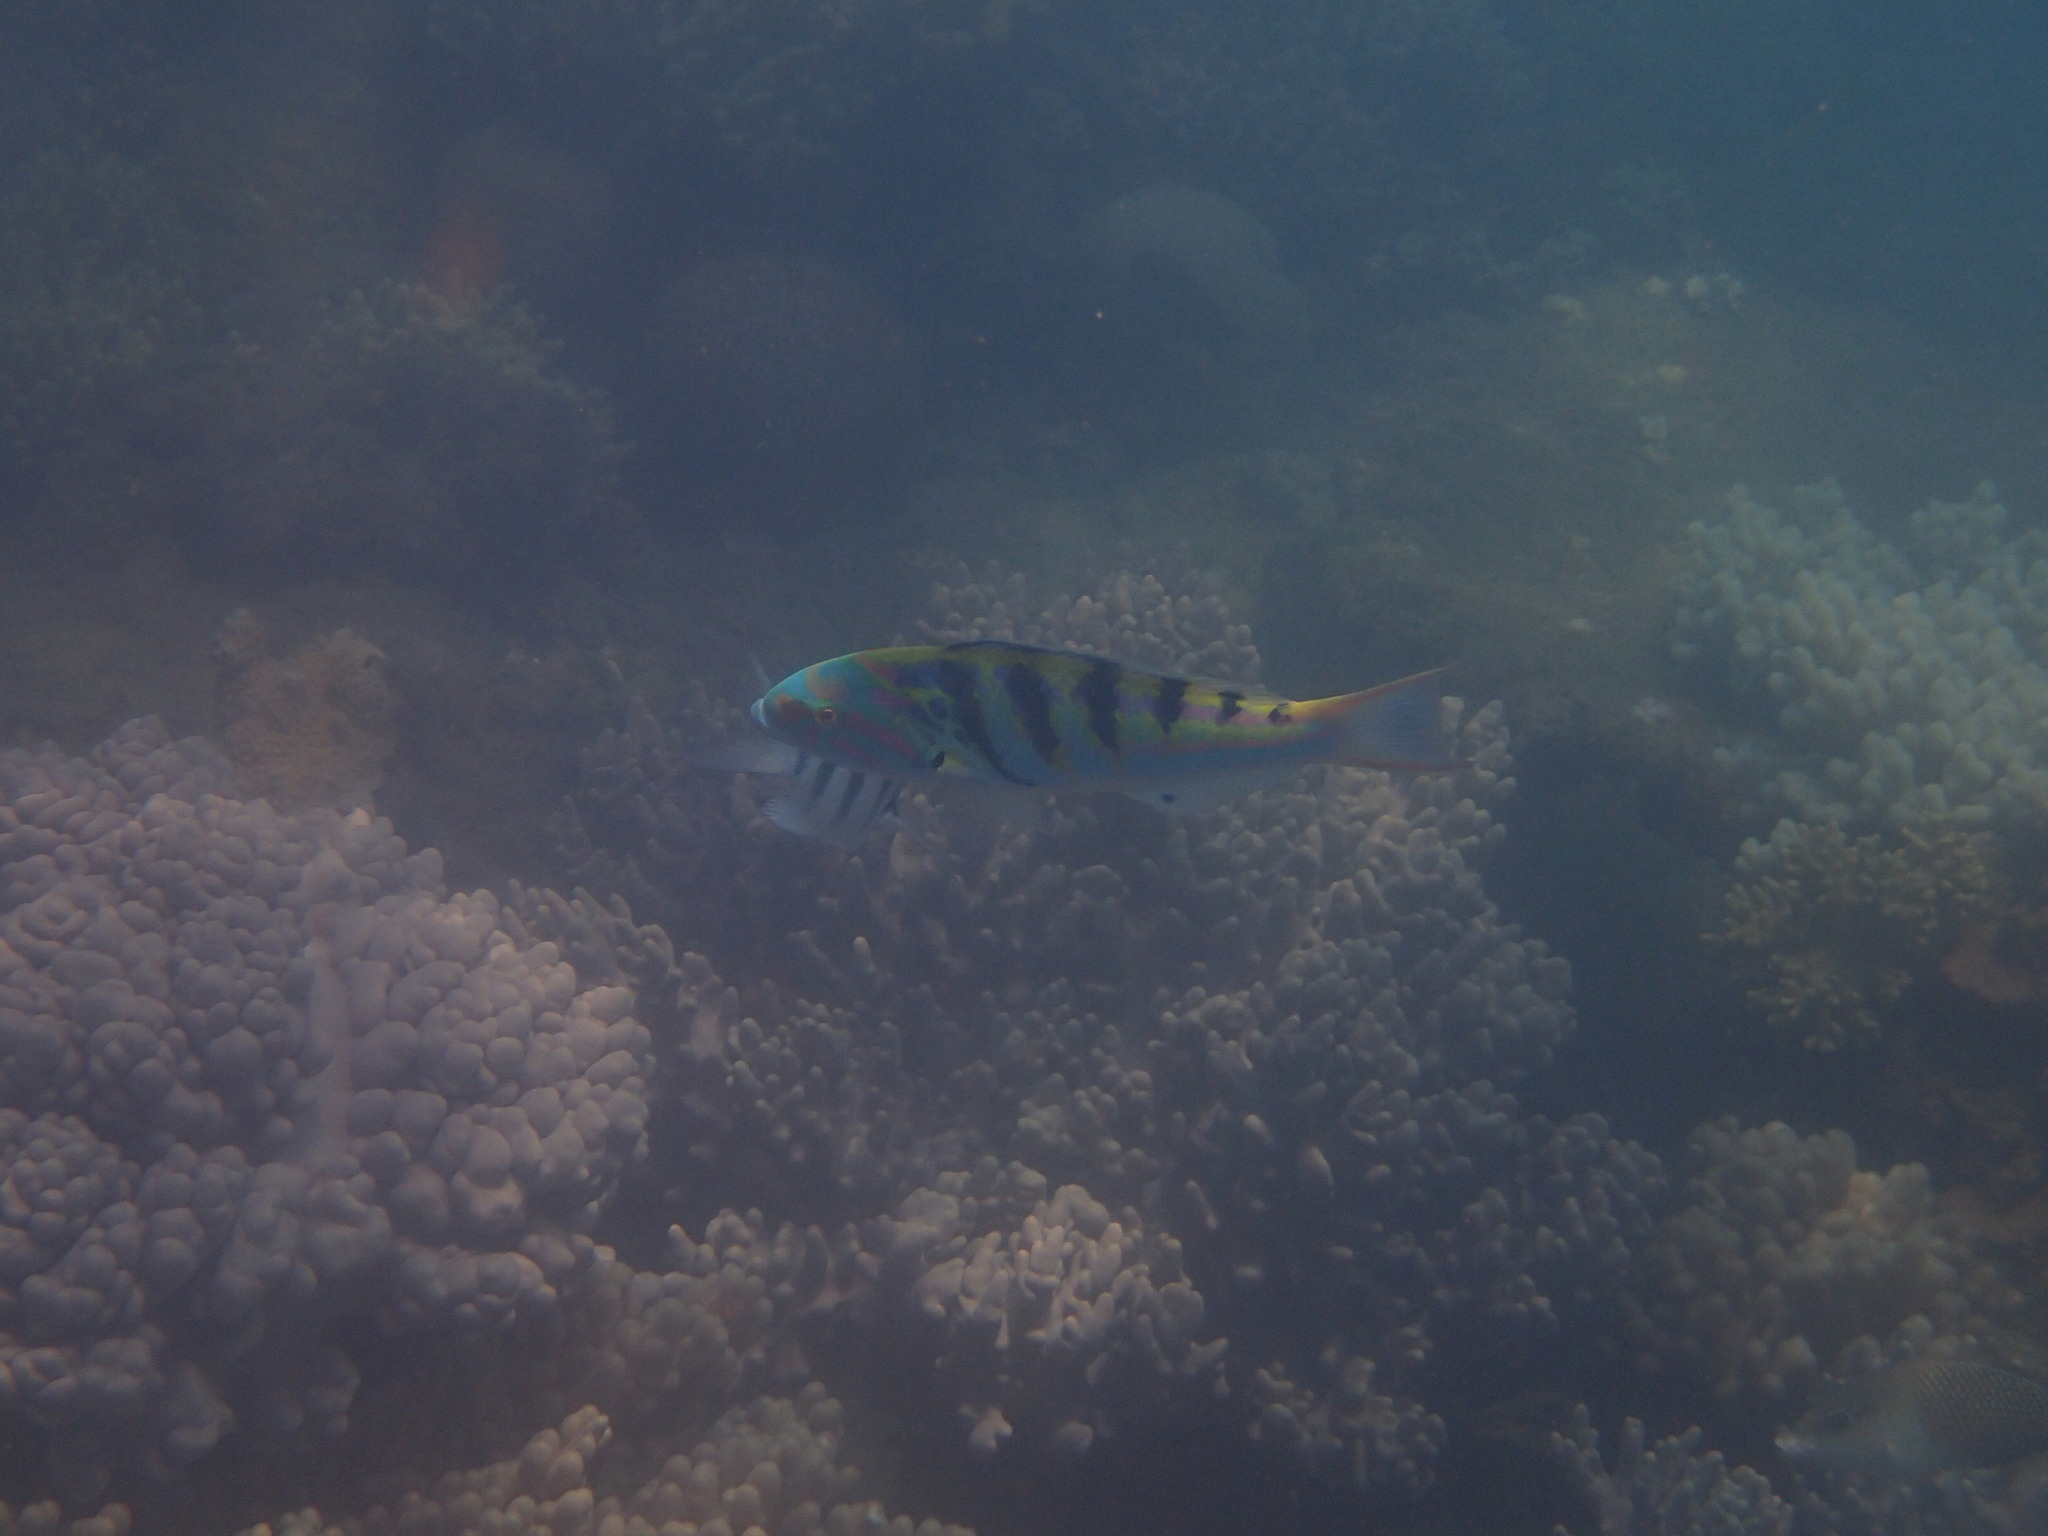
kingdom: Animalia
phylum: Chordata
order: Perciformes
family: Labridae
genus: Thalassoma
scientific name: Thalassoma hardwicke
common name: Sixbar wrasse
